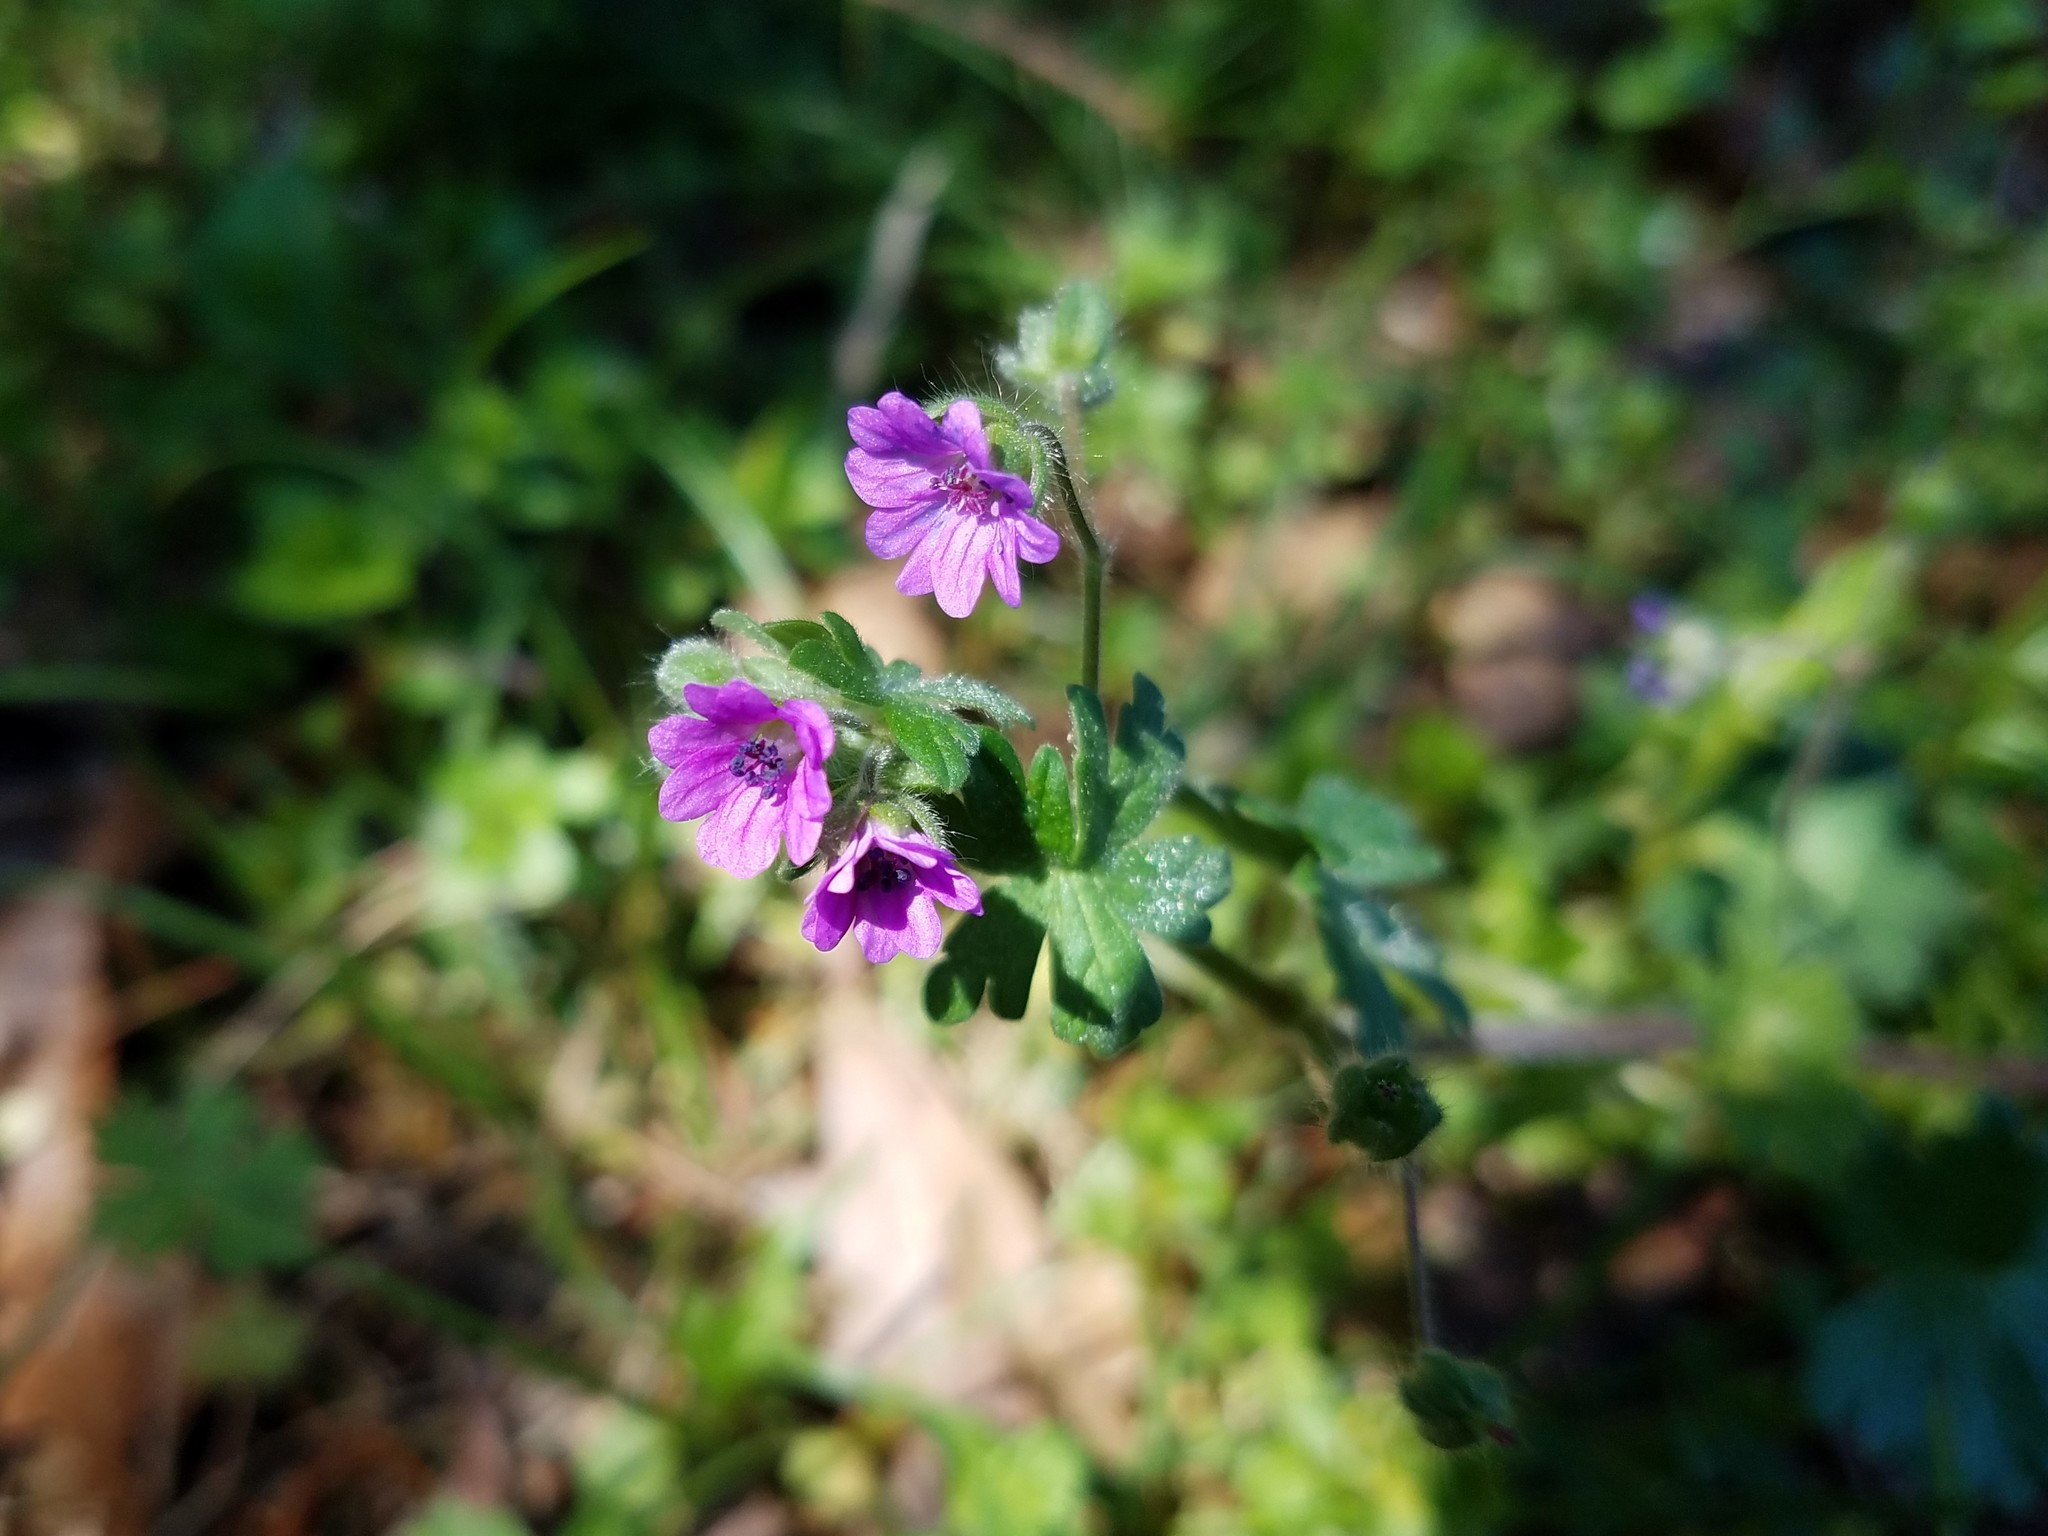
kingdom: Plantae
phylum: Tracheophyta
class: Magnoliopsida
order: Geraniales
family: Geraniaceae
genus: Geranium
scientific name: Geranium molle
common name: Dove's-foot crane's-bill
